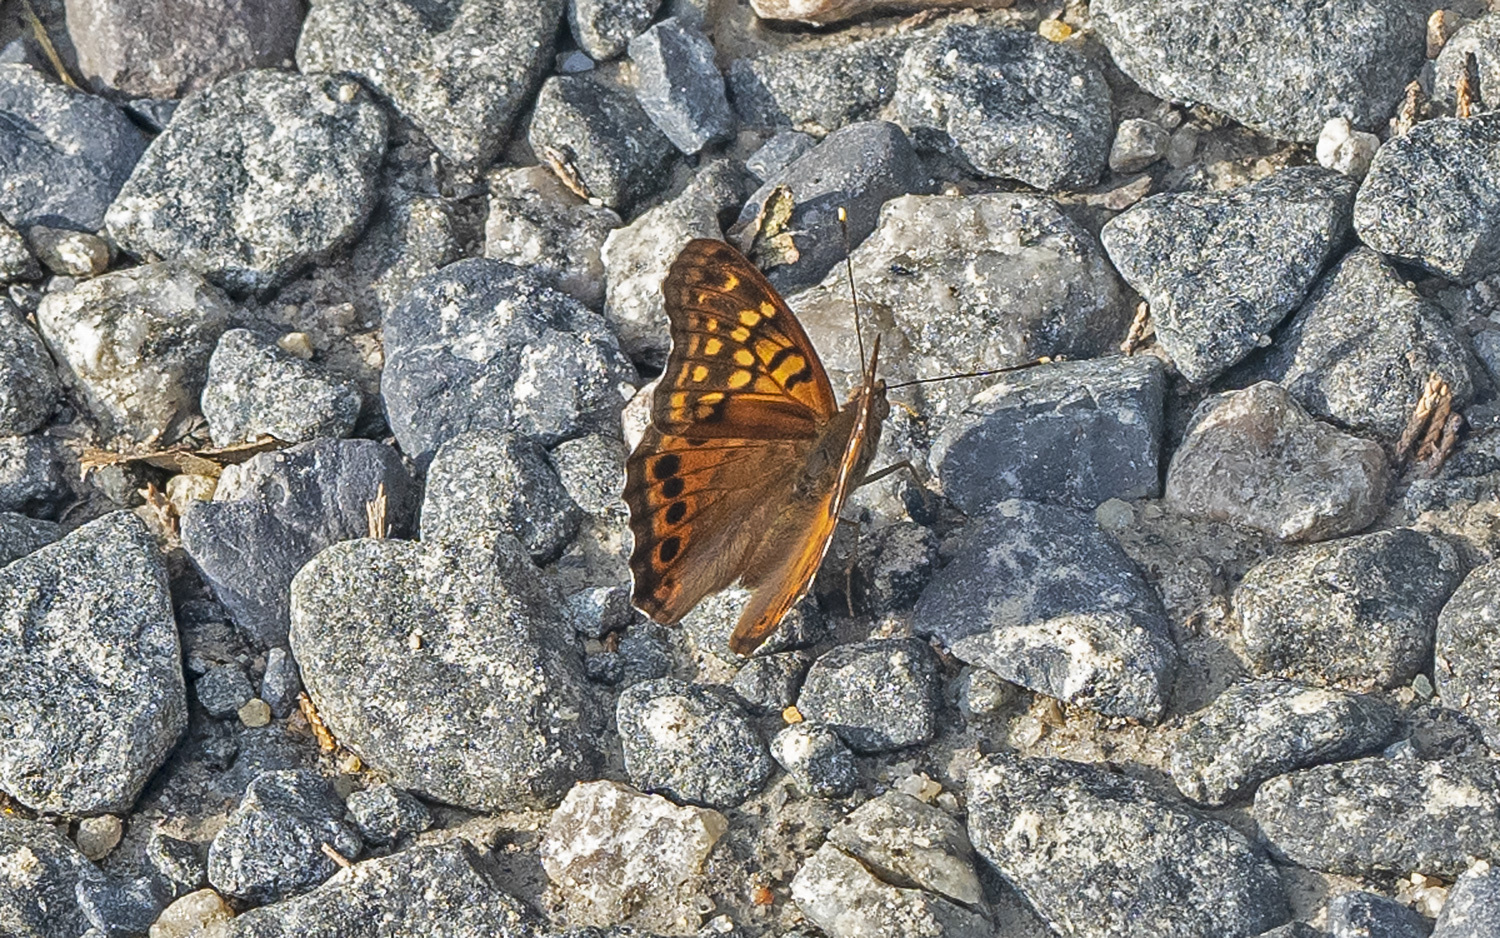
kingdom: Animalia
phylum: Arthropoda
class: Insecta
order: Lepidoptera
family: Nymphalidae
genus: Asterocampa
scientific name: Asterocampa clyton
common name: Tawny emperor
